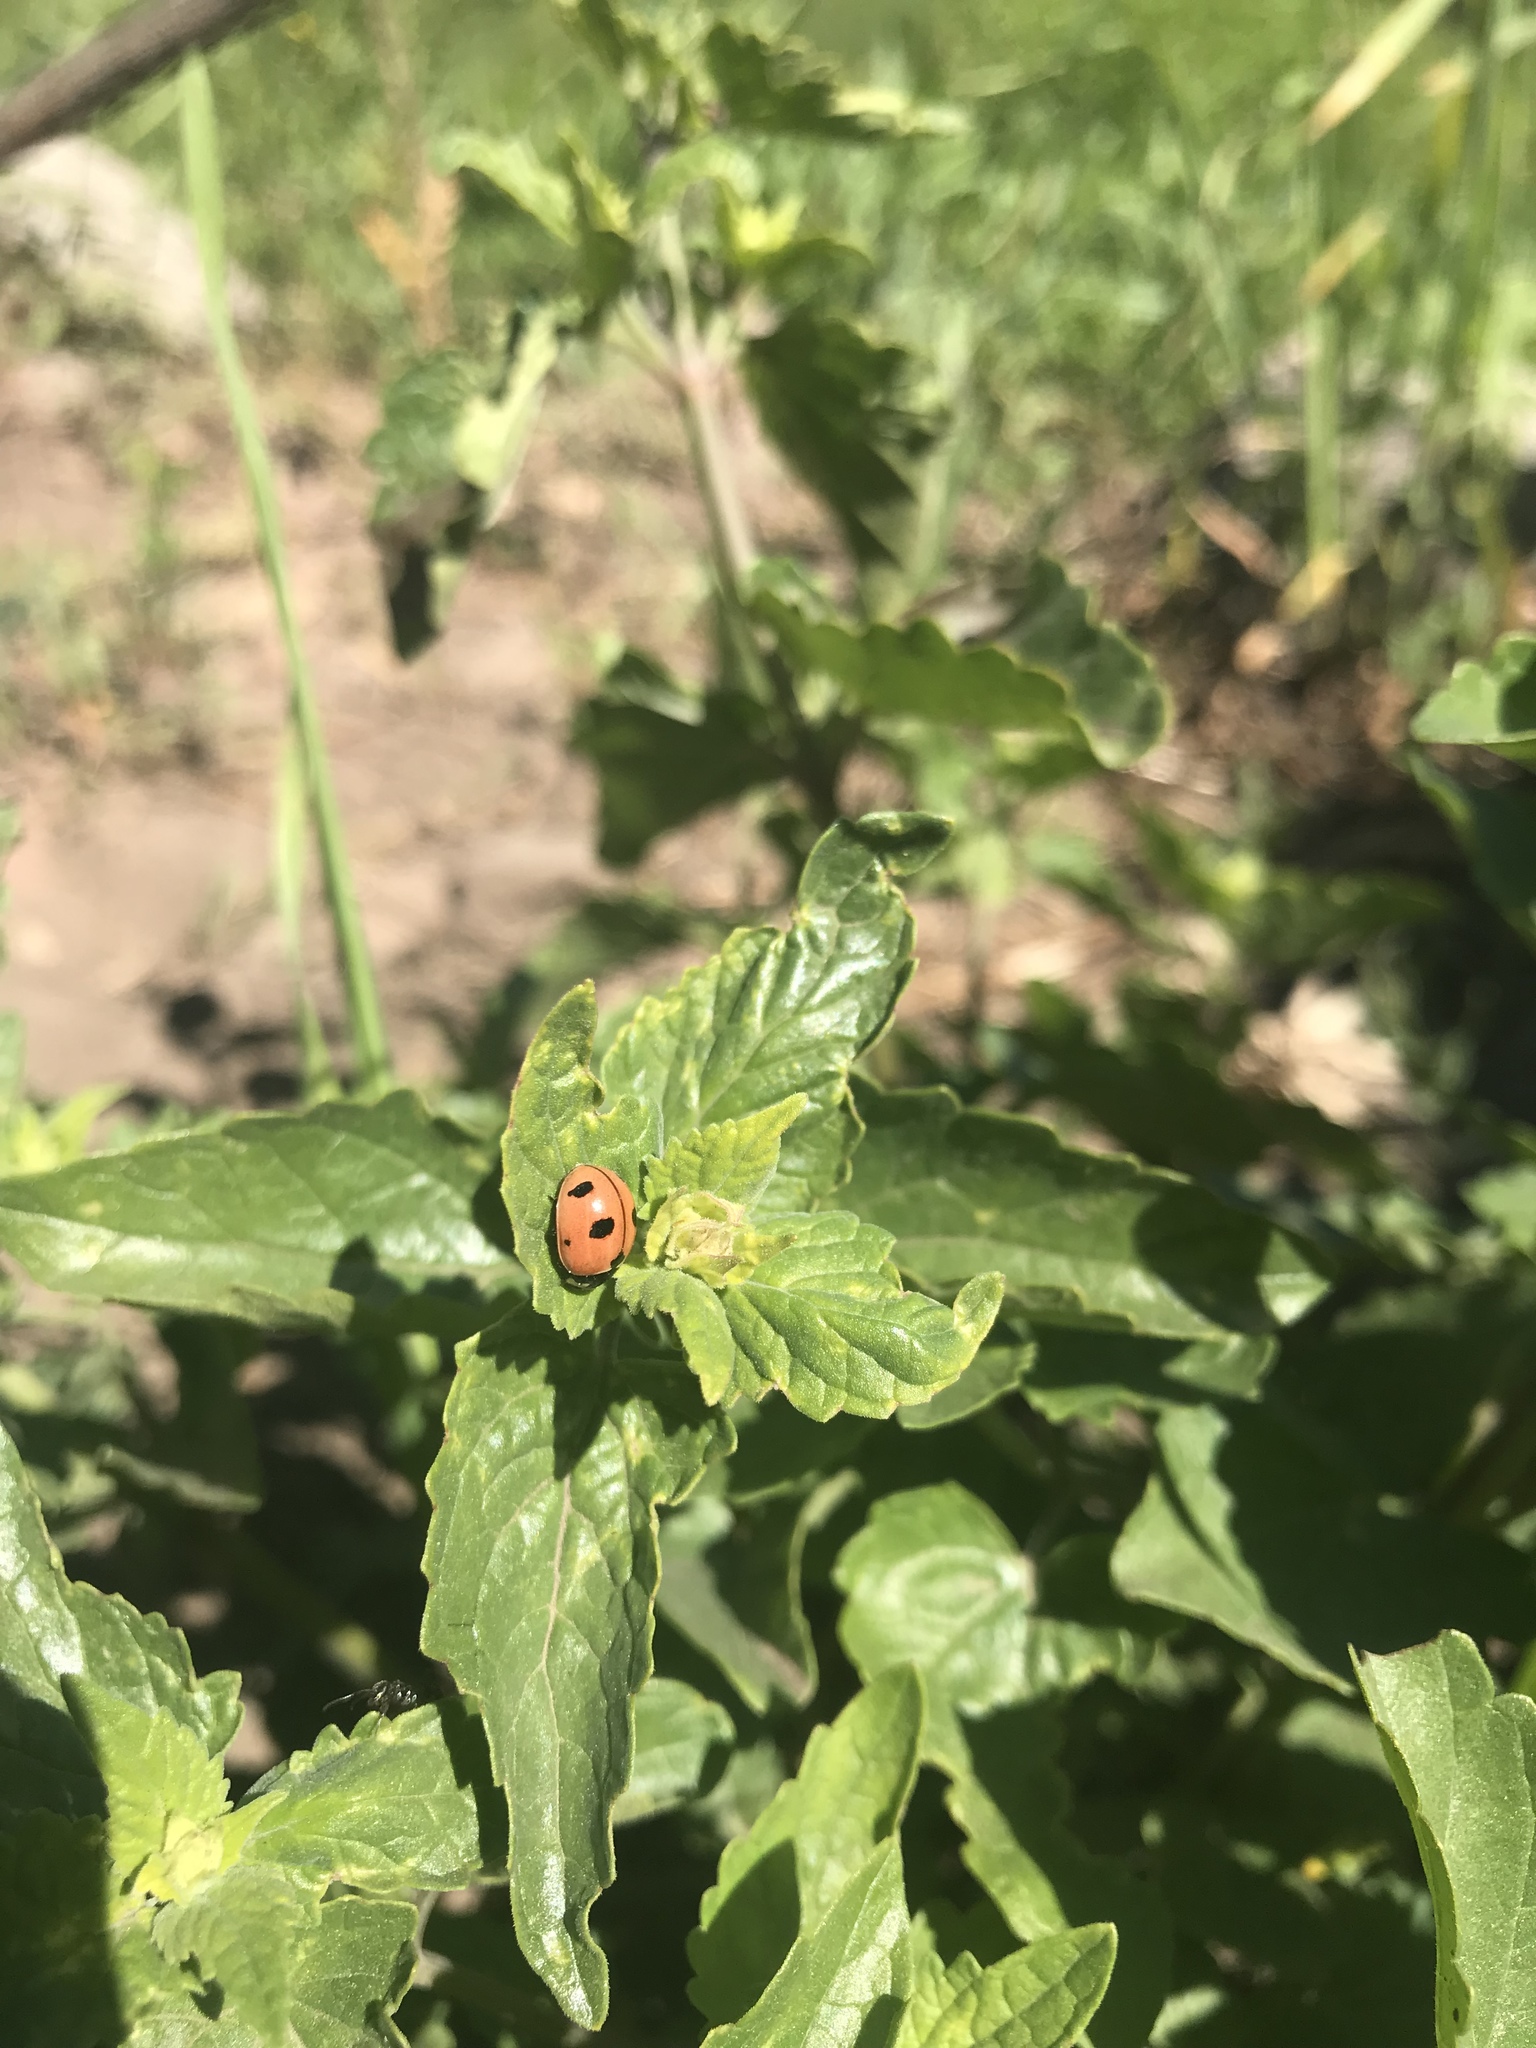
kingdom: Animalia
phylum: Arthropoda
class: Insecta
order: Coleoptera
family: Coccinellidae
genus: Coccinella
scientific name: Coccinella novemnotata
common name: Nine-spotted lady beetle
